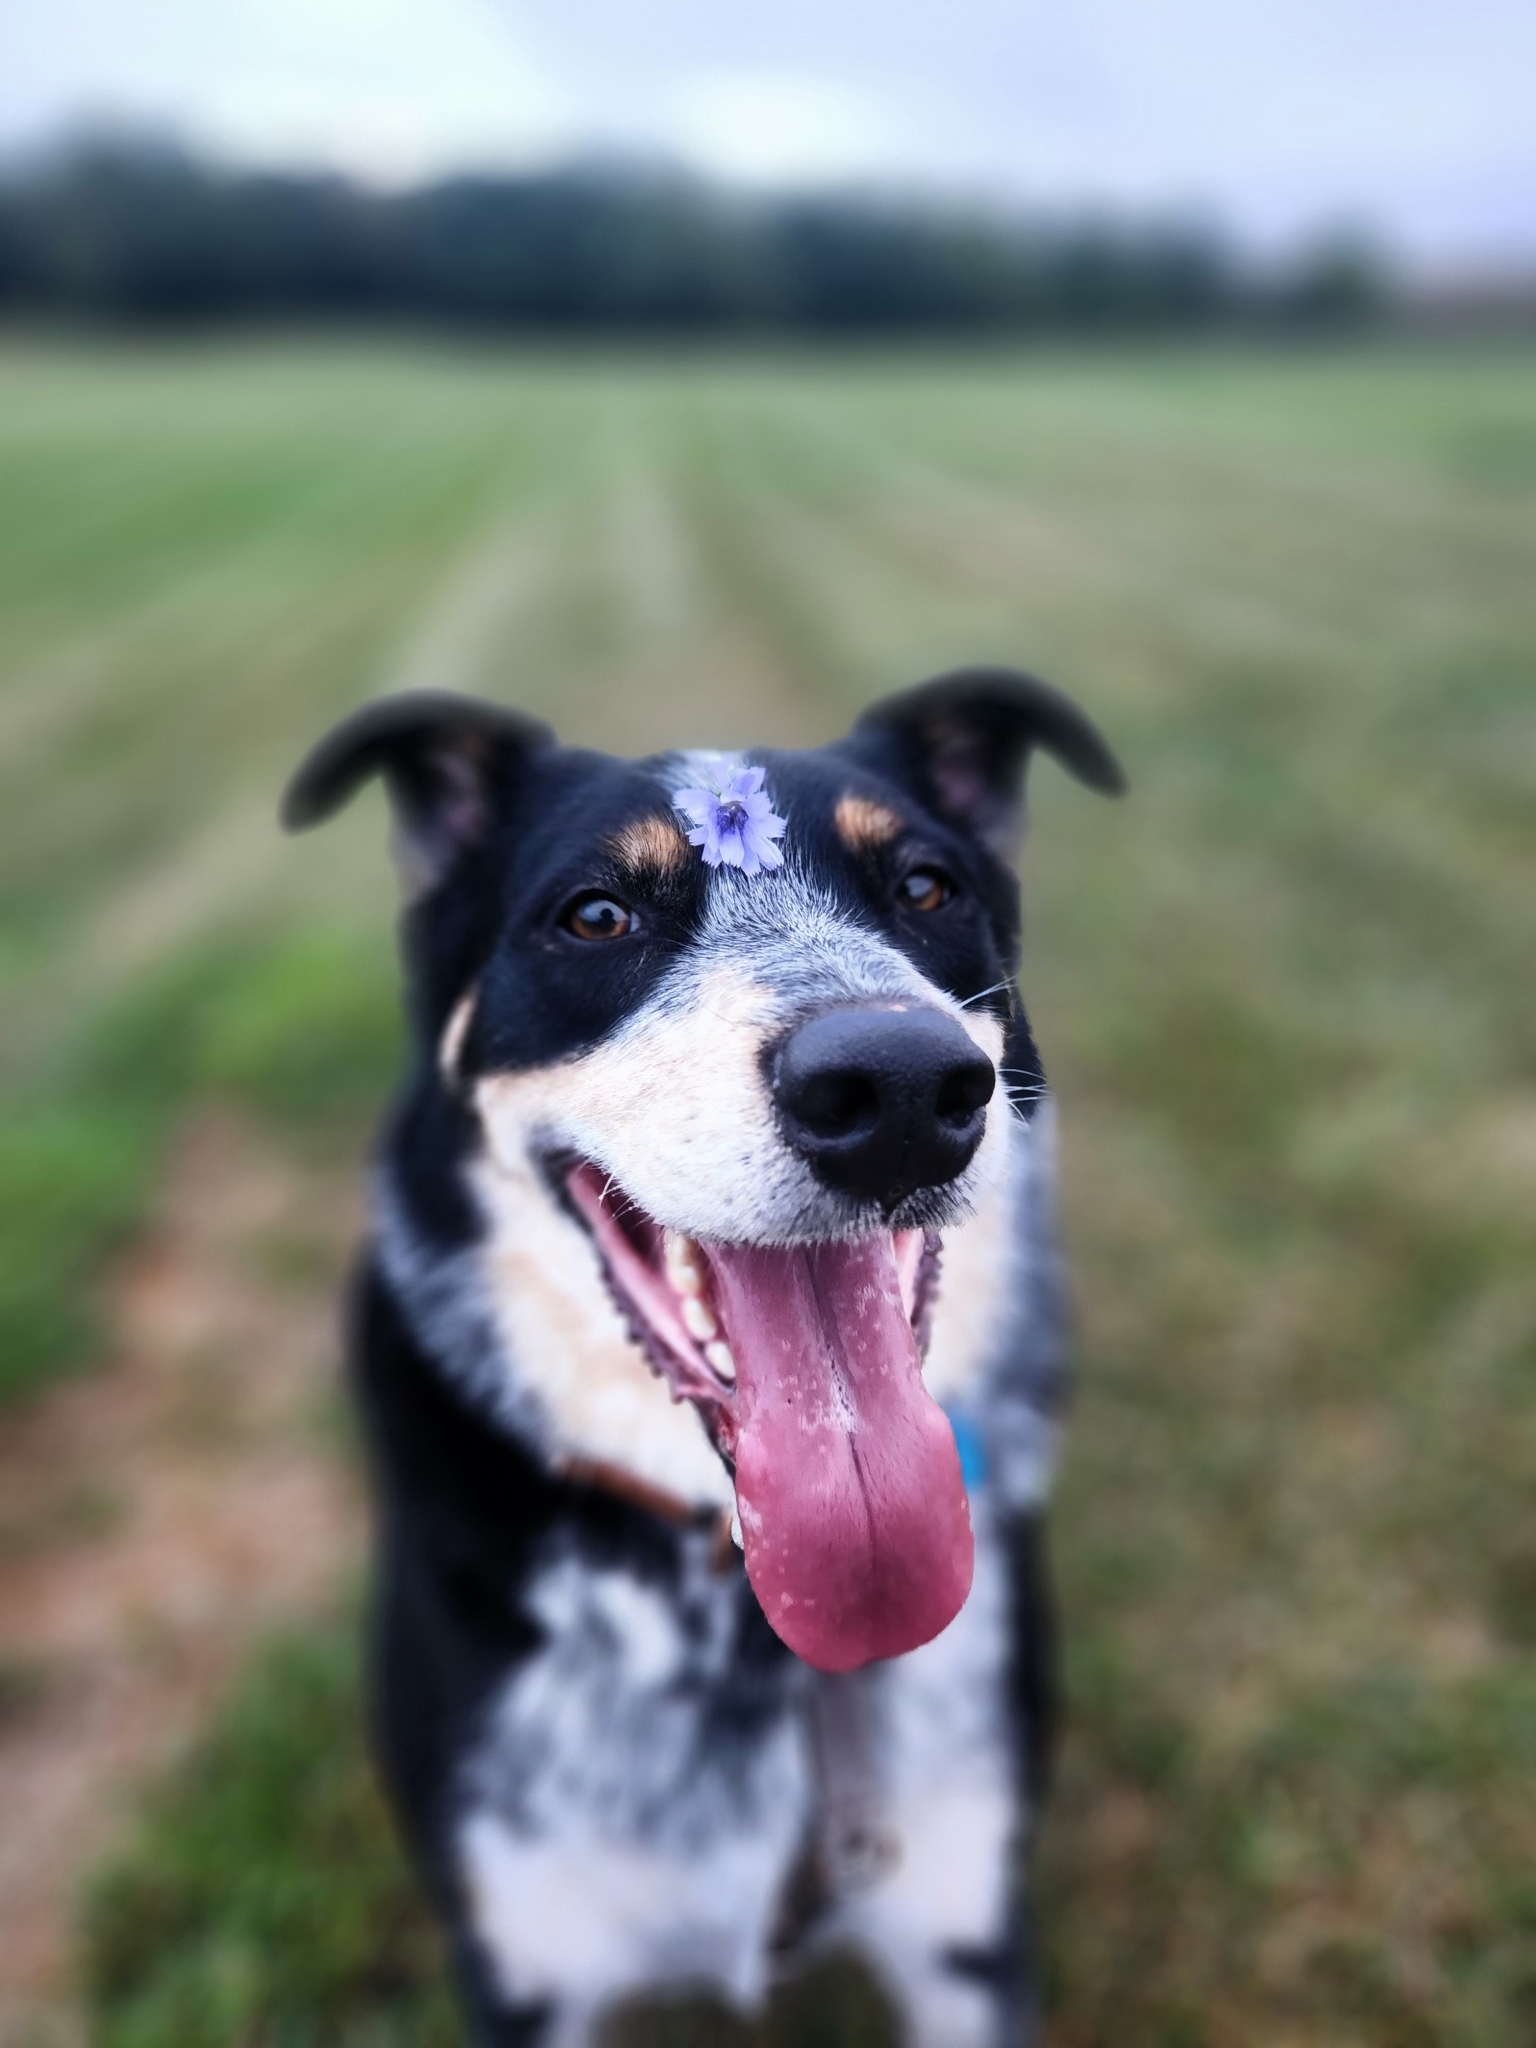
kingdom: Plantae
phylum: Tracheophyta
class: Magnoliopsida
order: Asterales
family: Asteraceae
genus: Cichorium
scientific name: Cichorium intybus
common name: Chicory
